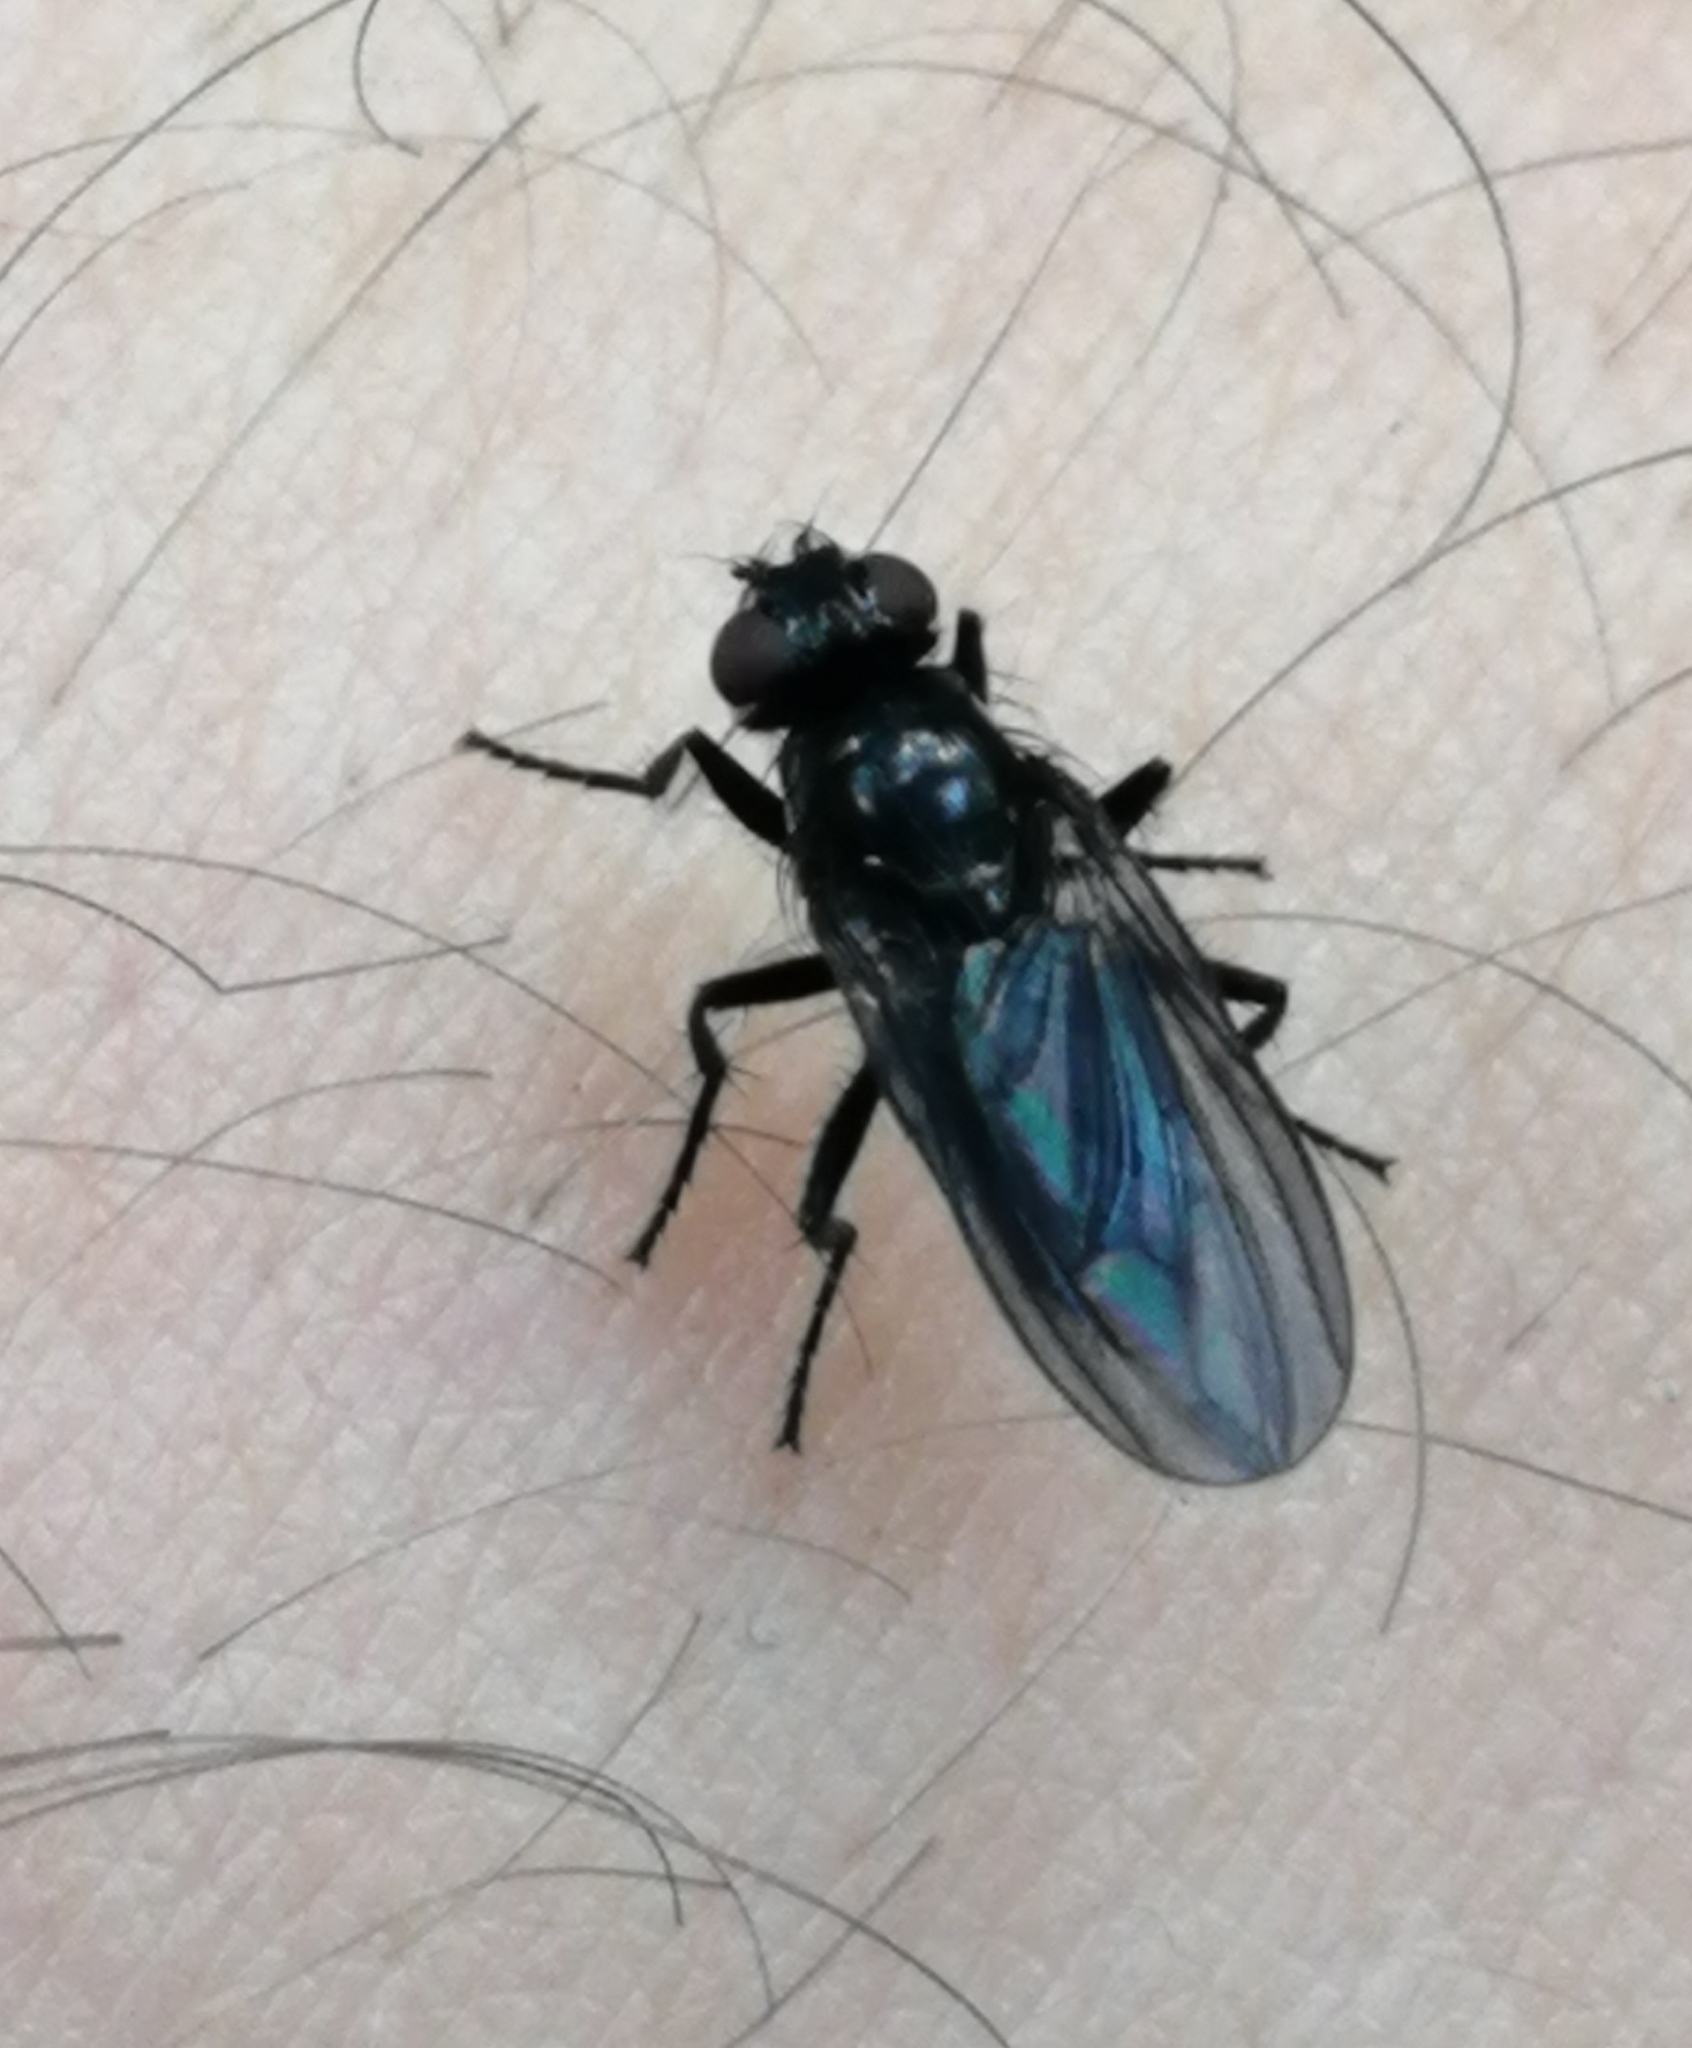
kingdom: Animalia
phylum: Arthropoda
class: Insecta
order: Diptera
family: Polleniidae
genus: Morinia
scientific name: Morinia doronici
